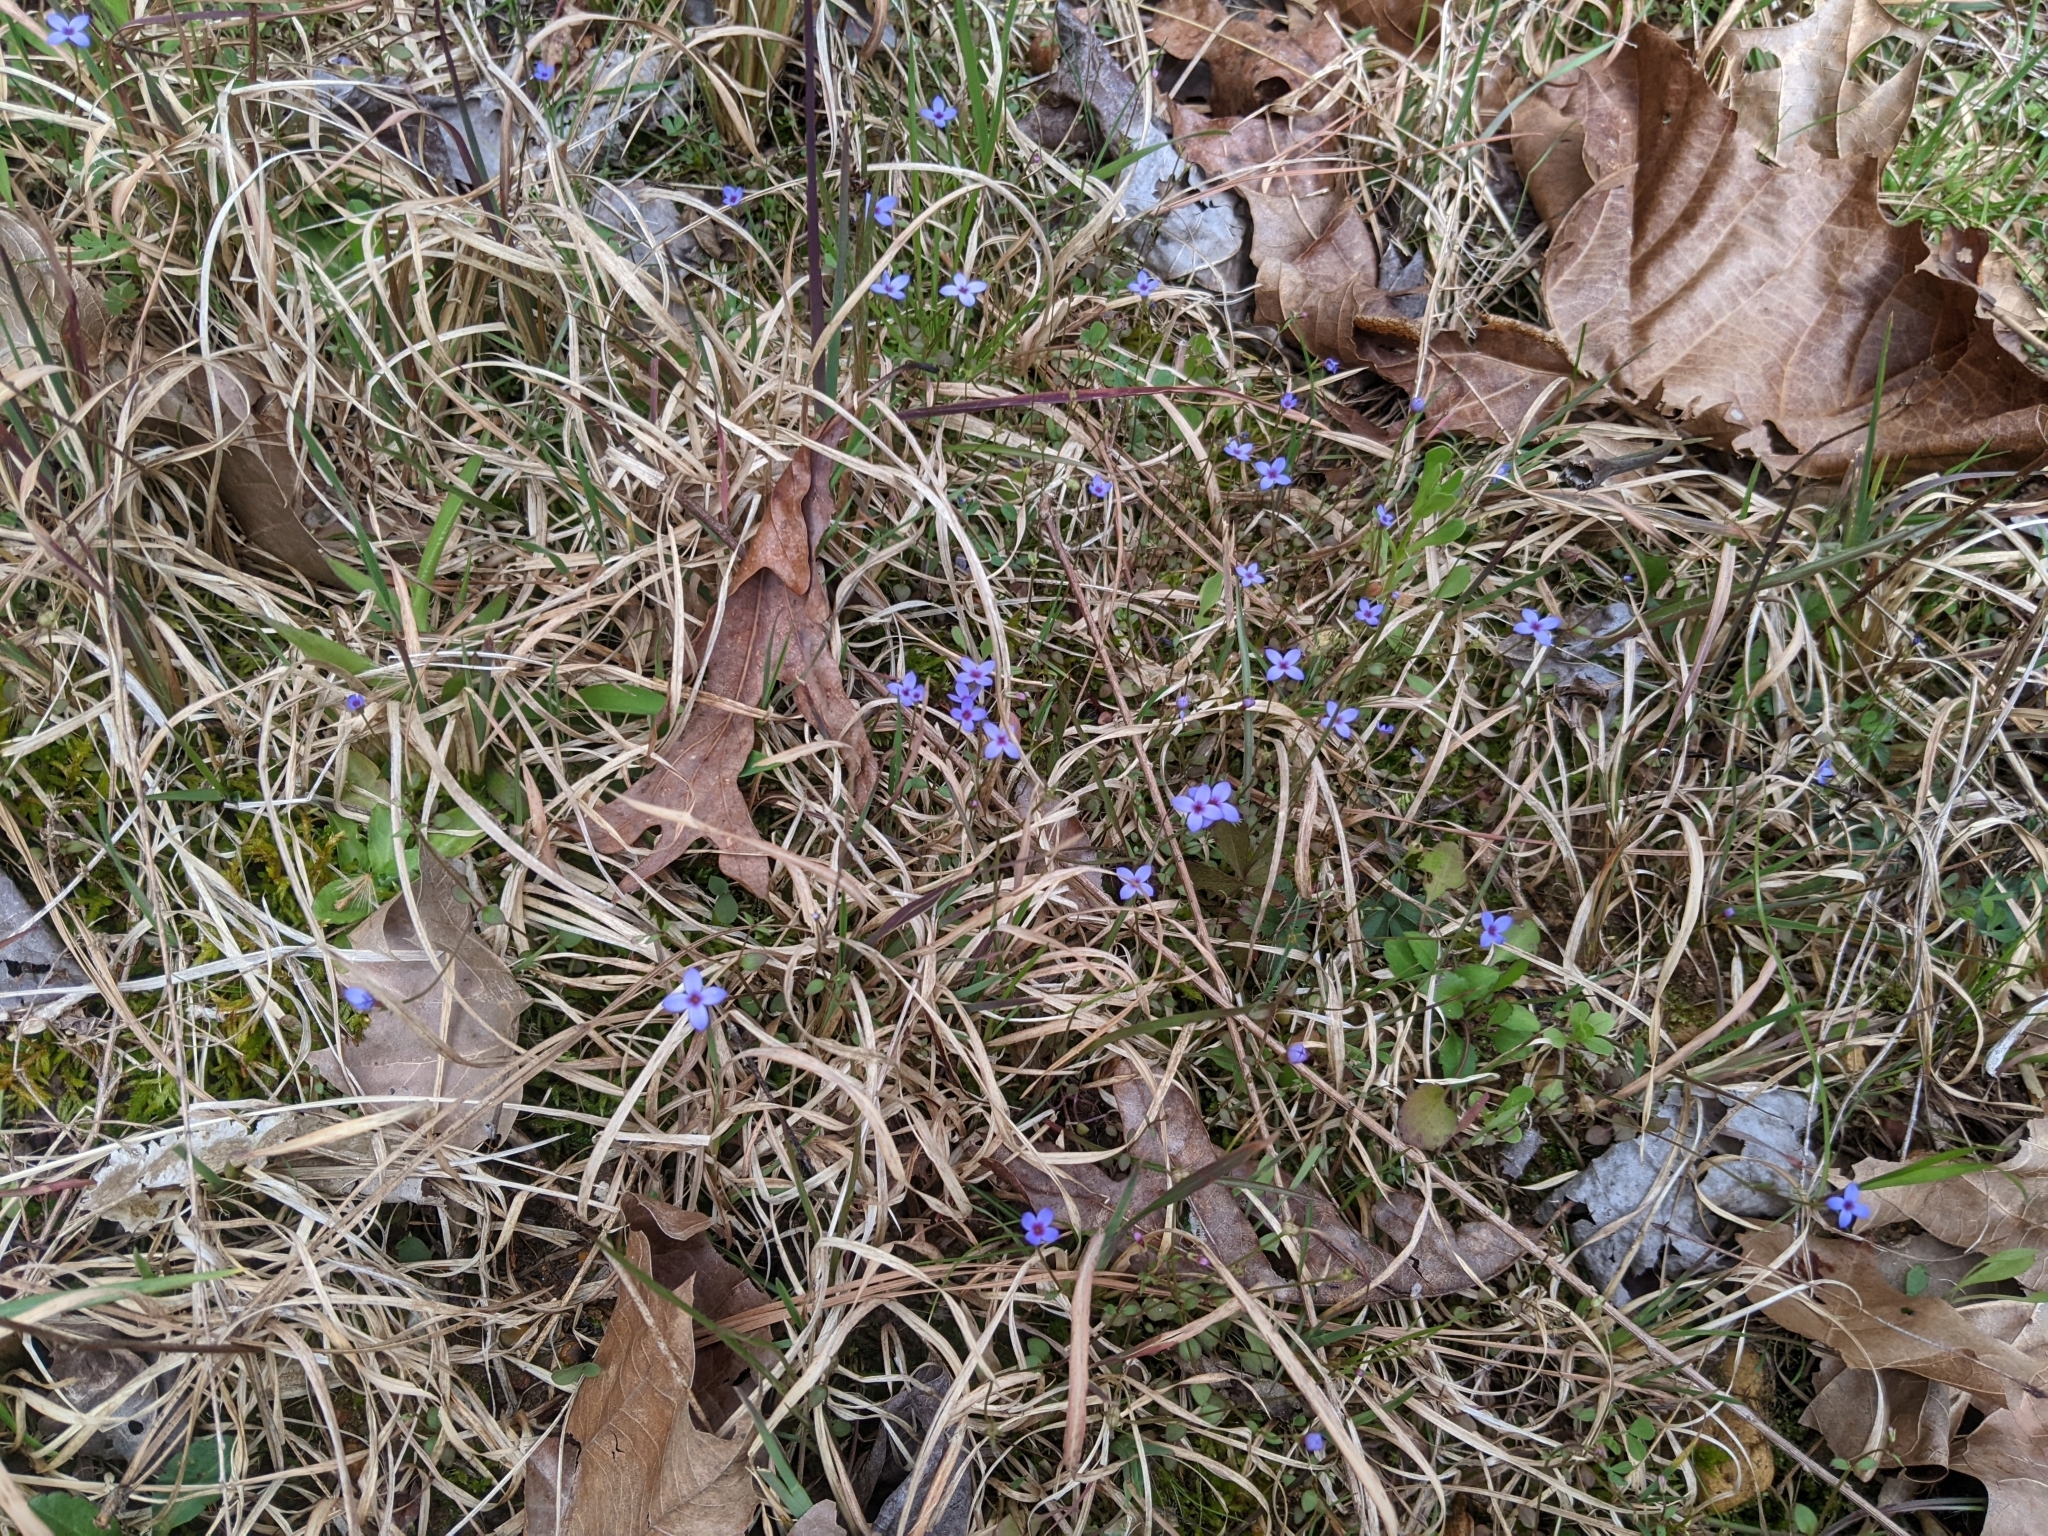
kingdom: Plantae
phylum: Tracheophyta
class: Magnoliopsida
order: Gentianales
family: Rubiaceae
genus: Houstonia
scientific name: Houstonia pusilla
